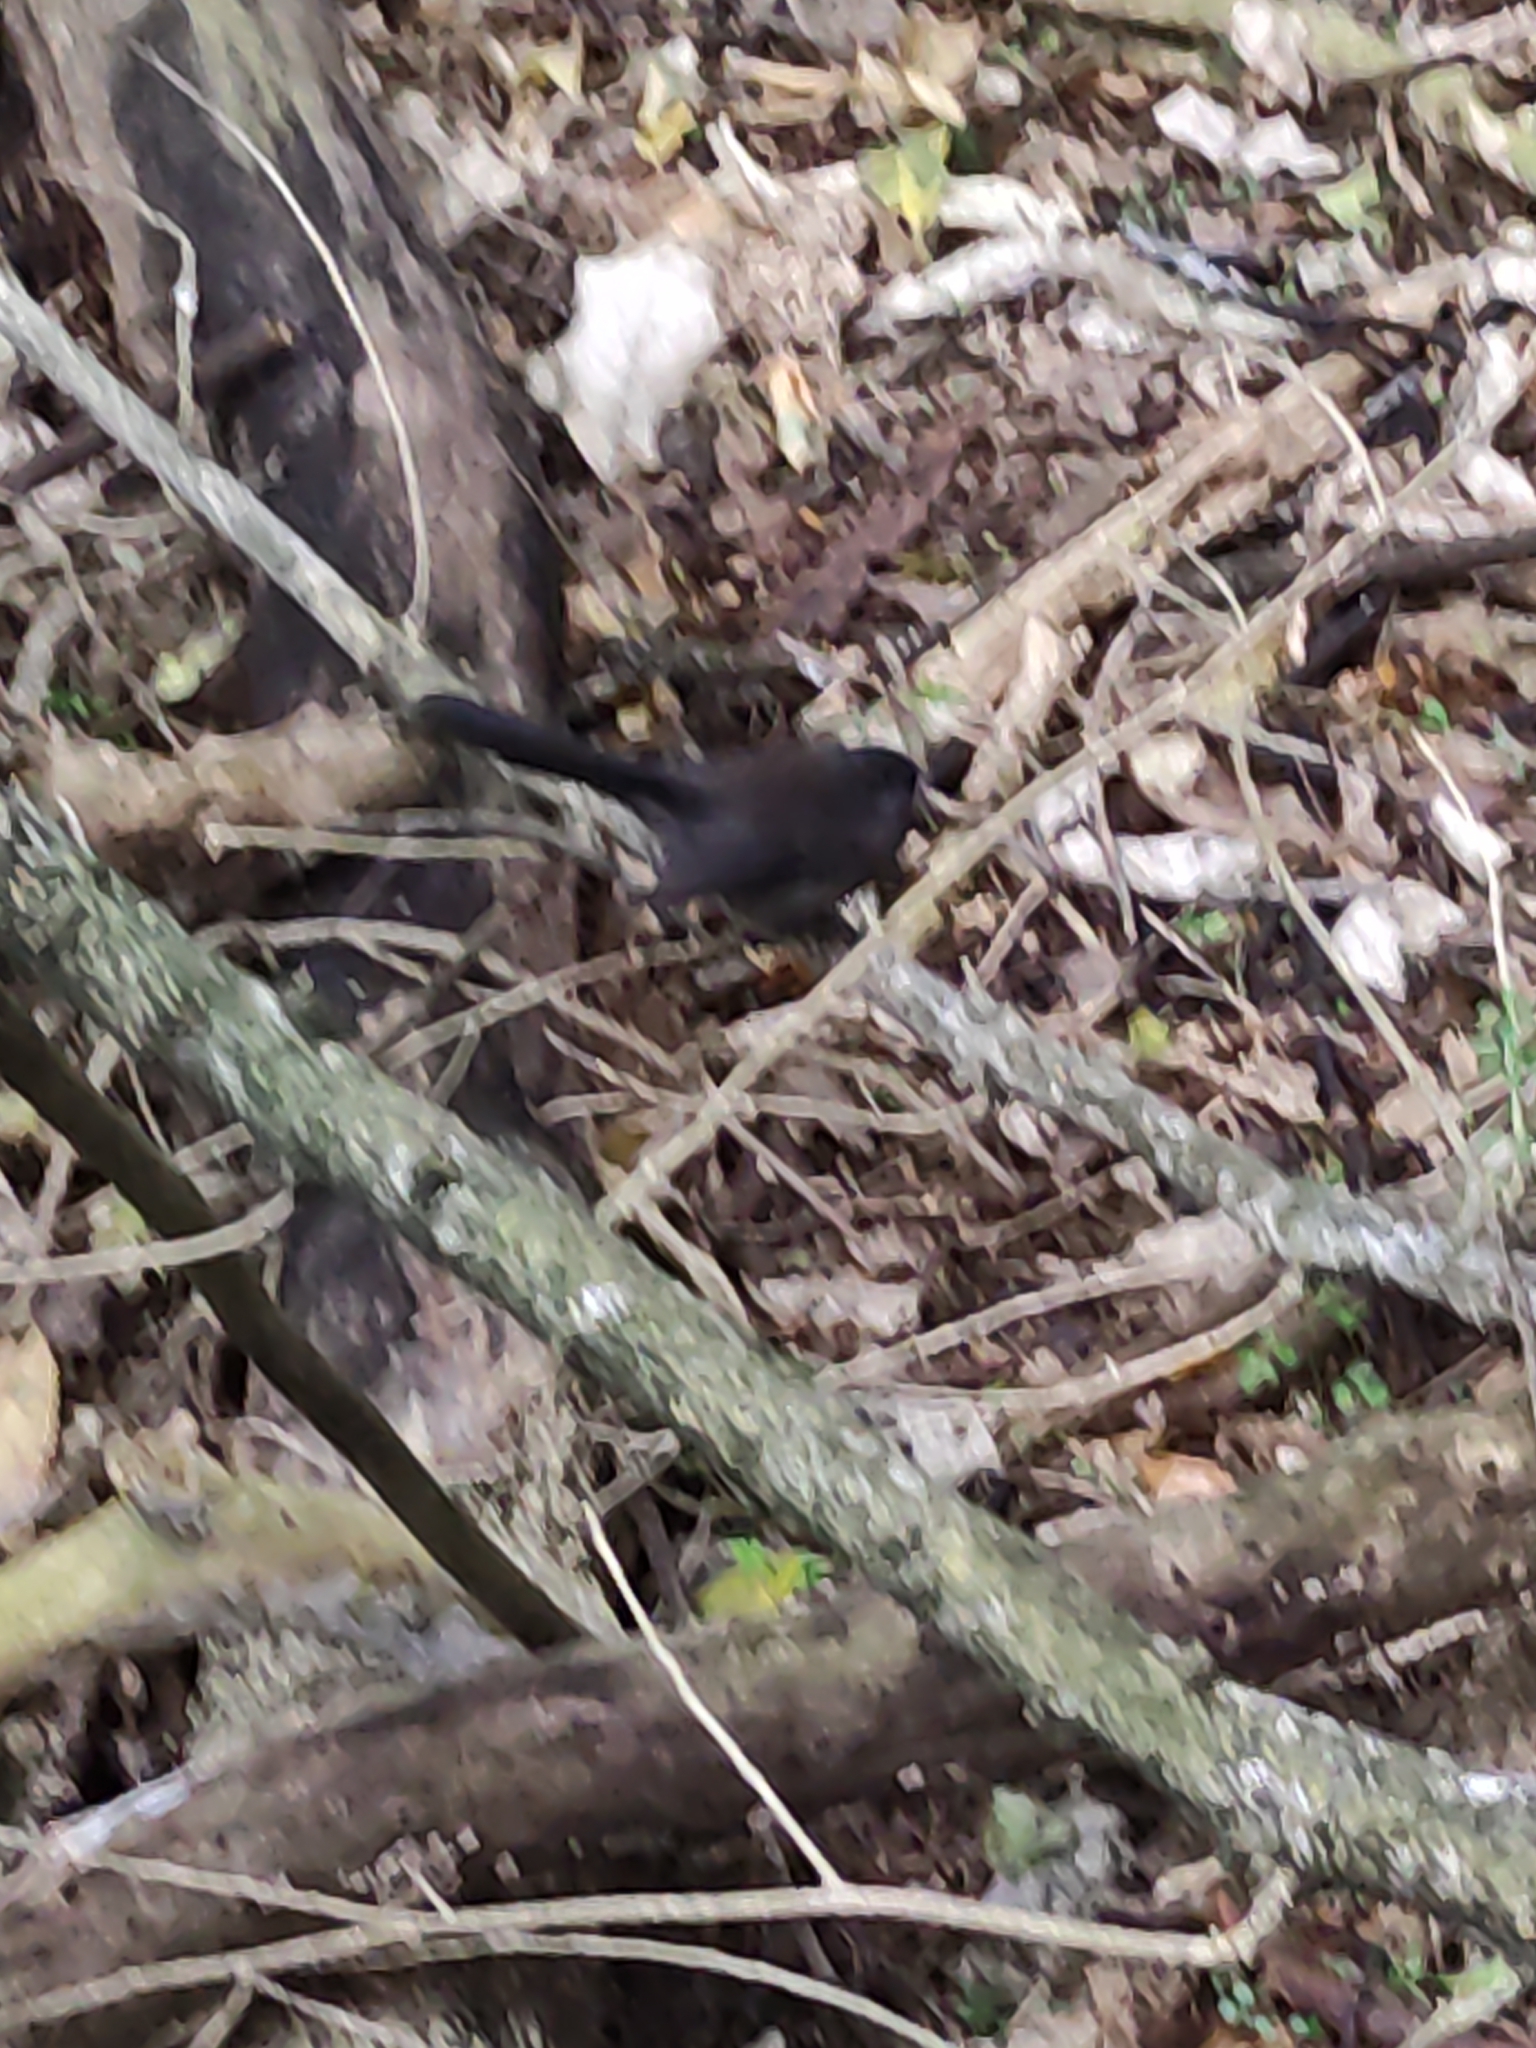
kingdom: Animalia
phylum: Chordata
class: Aves
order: Passeriformes
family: Rhipiduridae
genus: Rhipidura
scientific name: Rhipidura fuliginosa
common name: New zealand fantail
